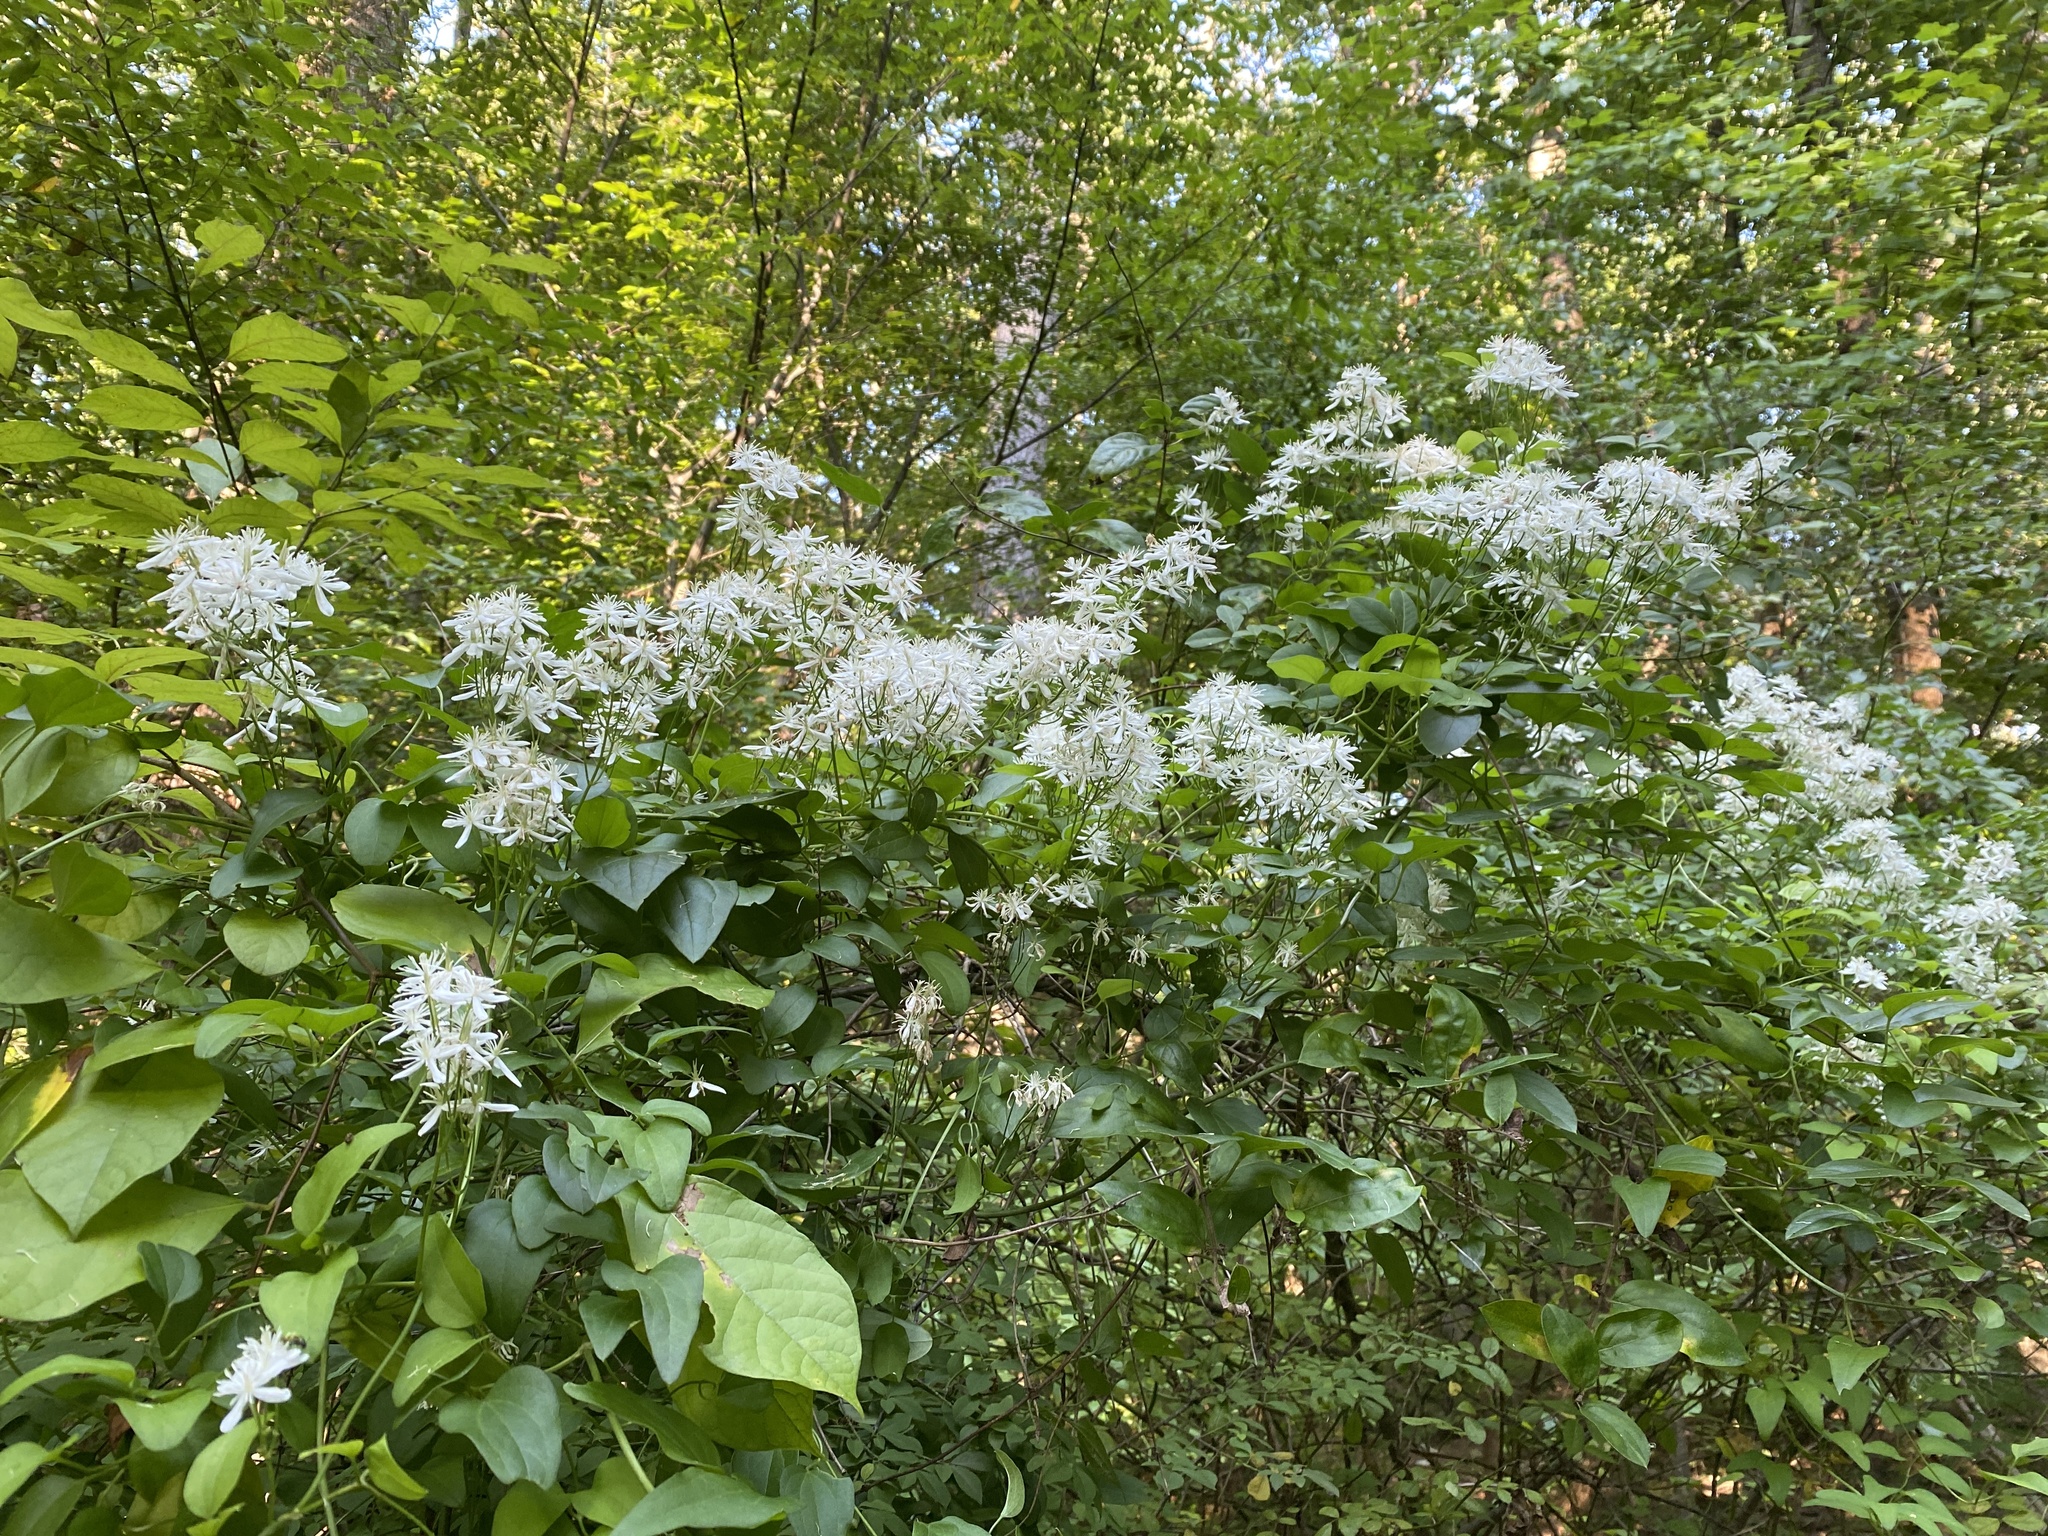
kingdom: Plantae
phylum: Tracheophyta
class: Magnoliopsida
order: Ranunculales
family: Ranunculaceae
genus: Clematis
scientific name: Clematis terniflora
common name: Sweet autumn clematis
